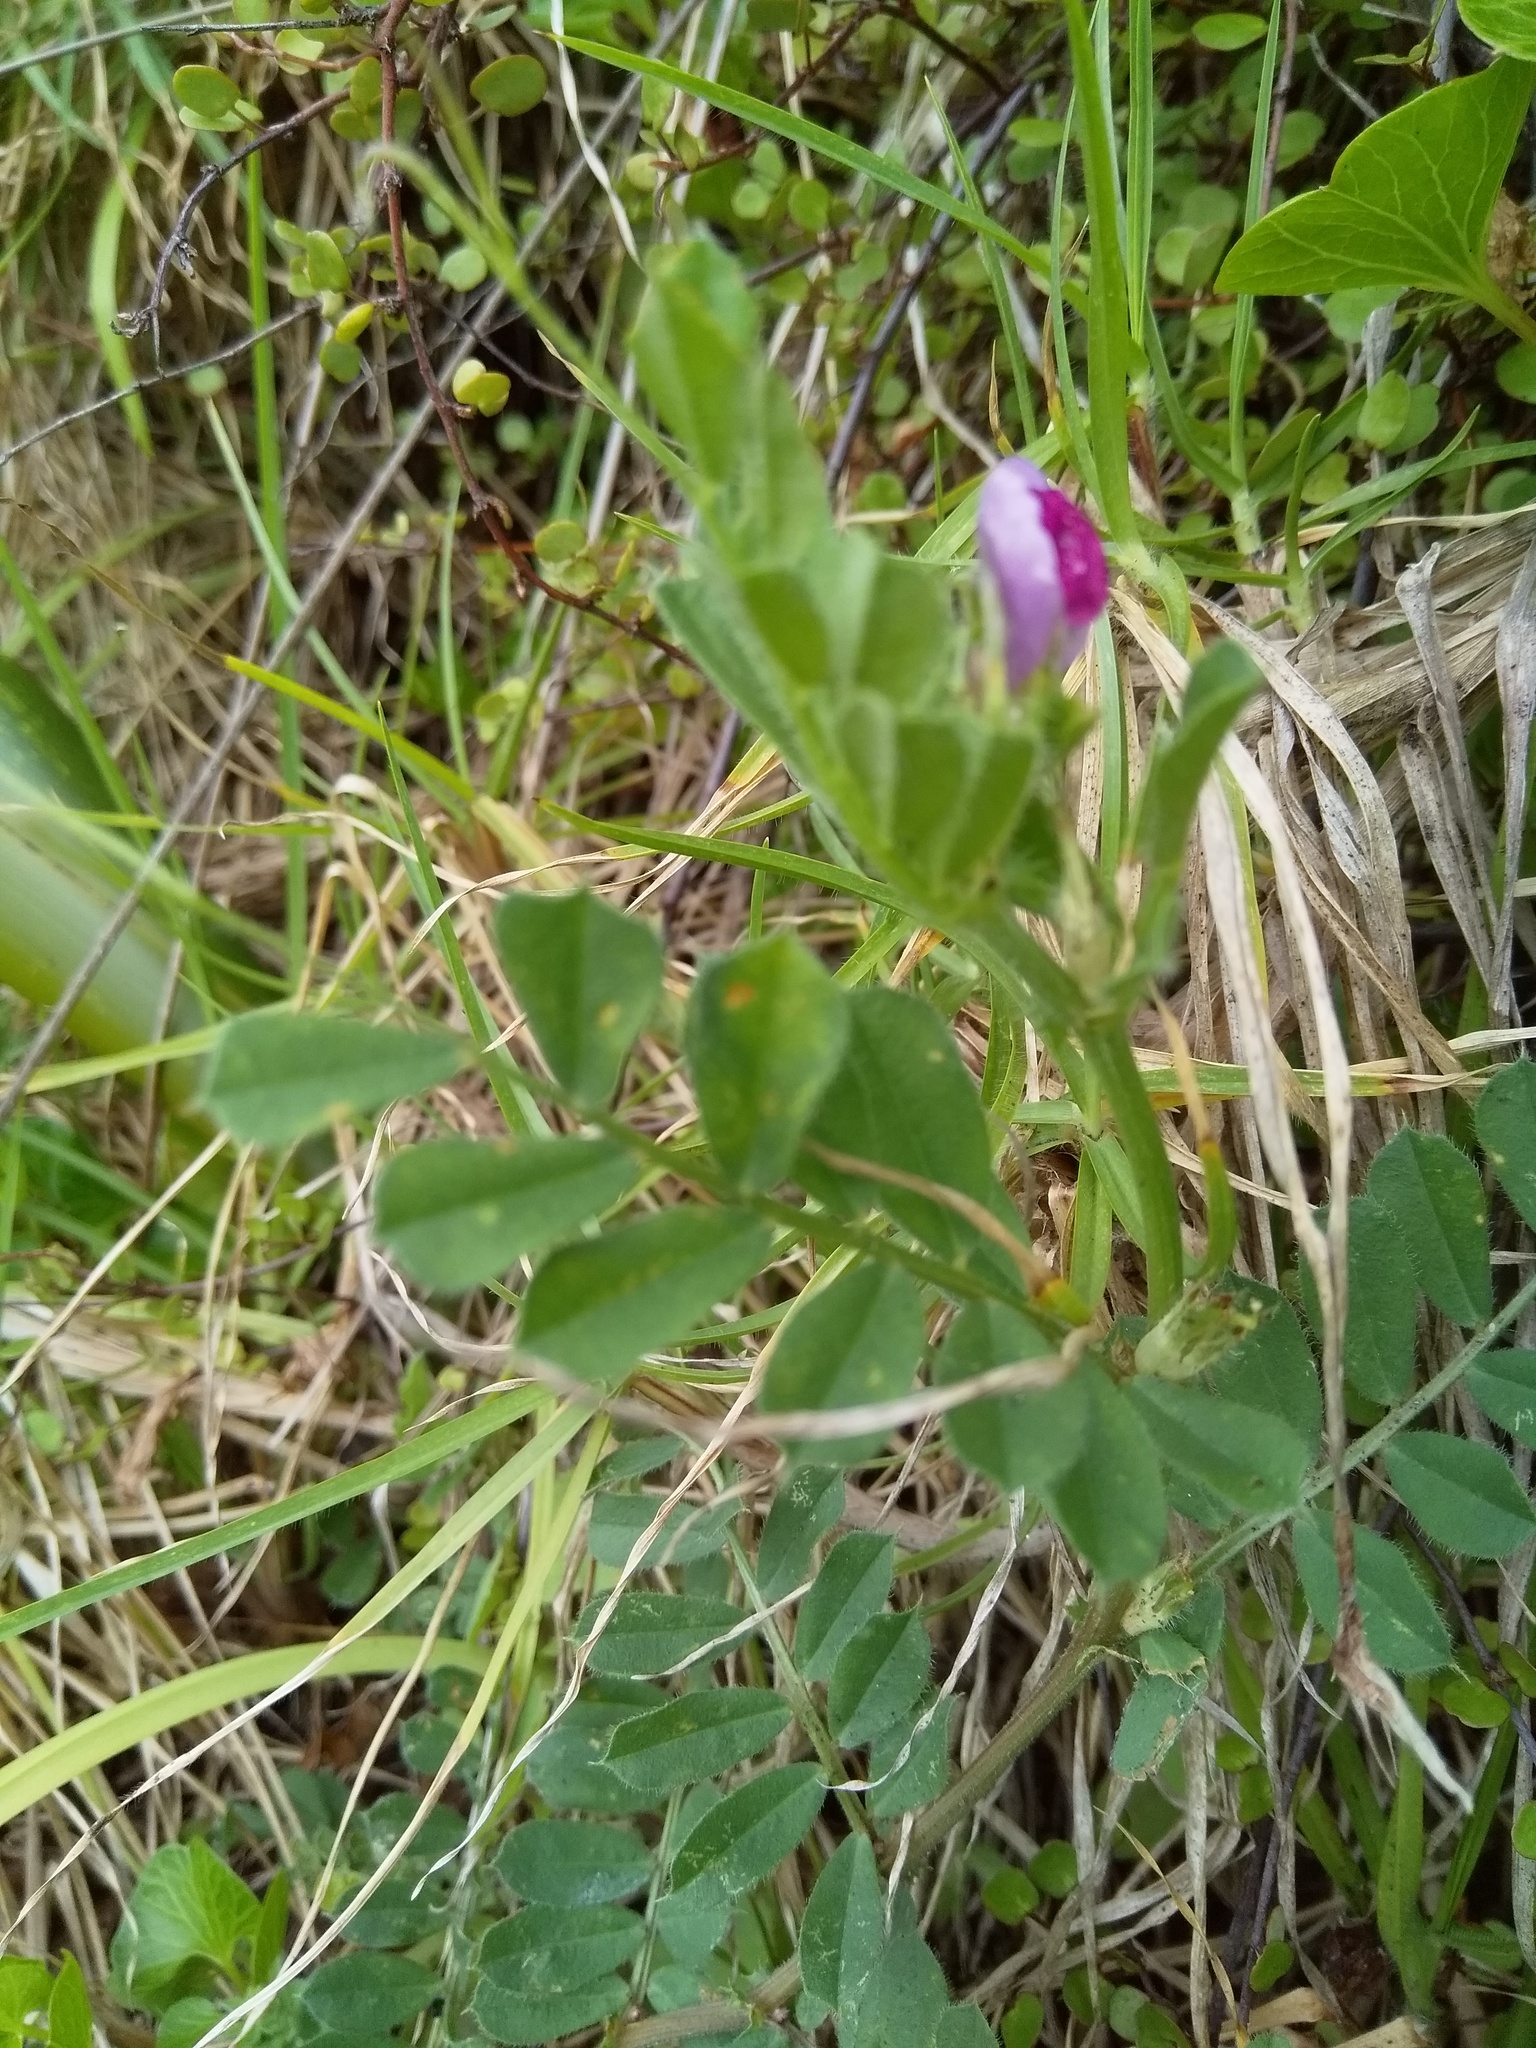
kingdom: Plantae
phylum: Tracheophyta
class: Magnoliopsida
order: Fabales
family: Fabaceae
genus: Vicia
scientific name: Vicia sativa
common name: Garden vetch
